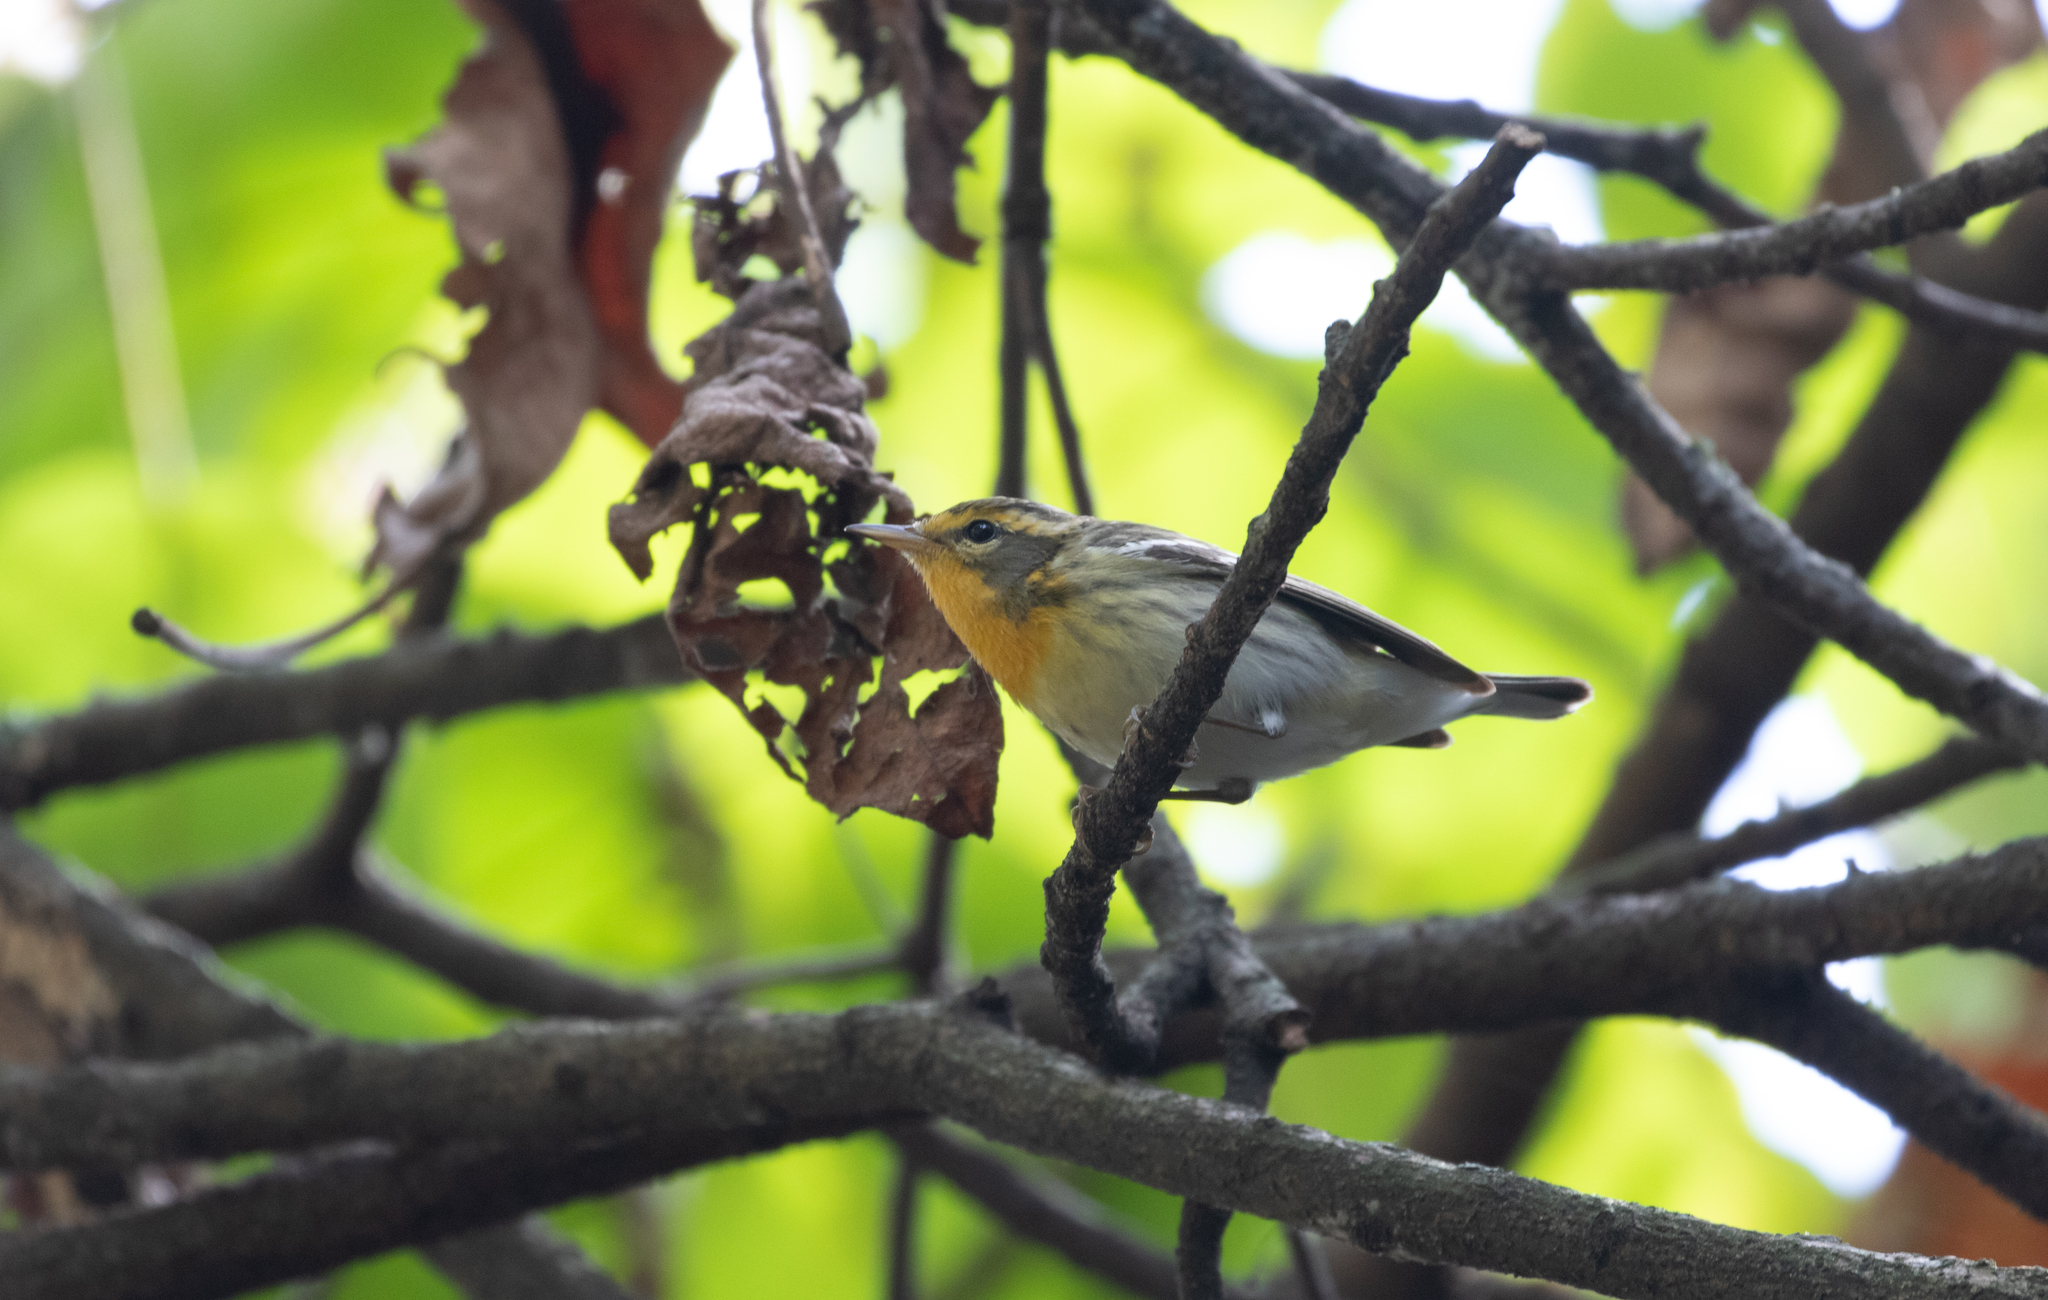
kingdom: Animalia
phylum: Chordata
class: Aves
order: Passeriformes
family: Parulidae
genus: Setophaga
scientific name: Setophaga fusca
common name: Blackburnian warbler
